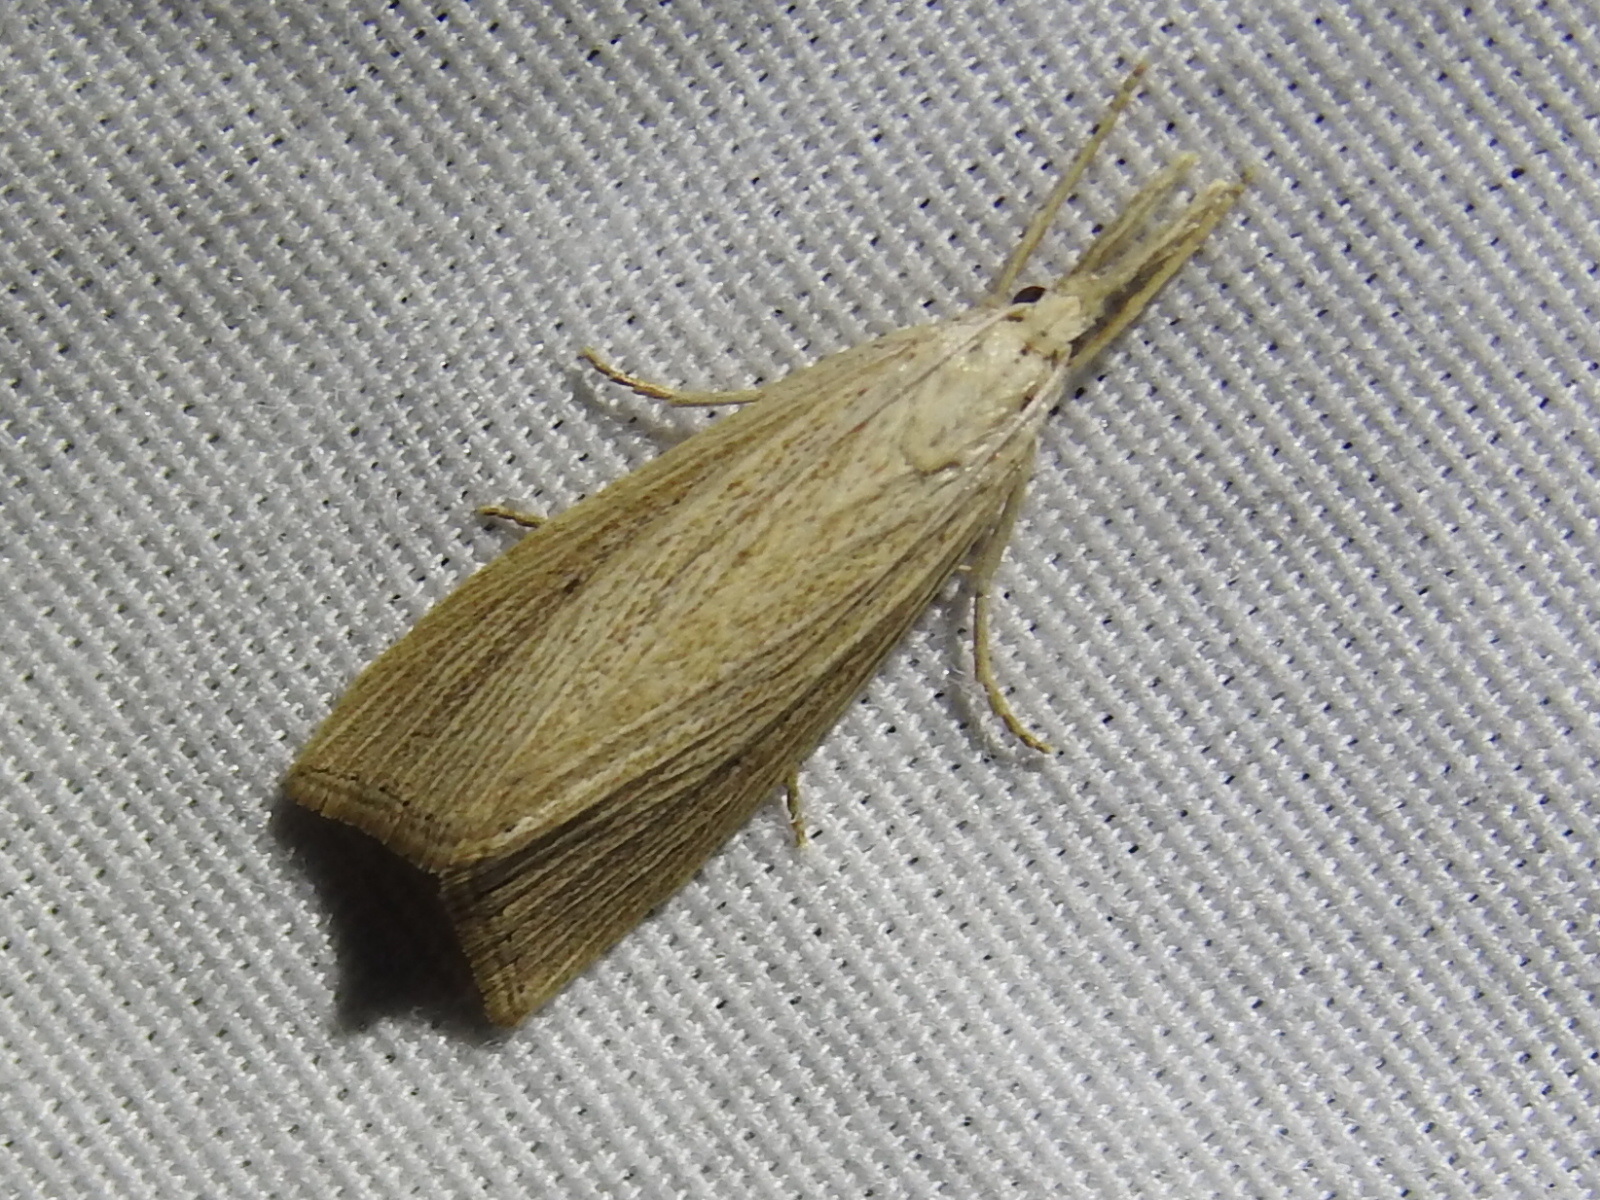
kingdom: Animalia
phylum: Arthropoda
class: Insecta
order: Lepidoptera
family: Crambidae
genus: Eoreuma
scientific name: Eoreuma densellus
